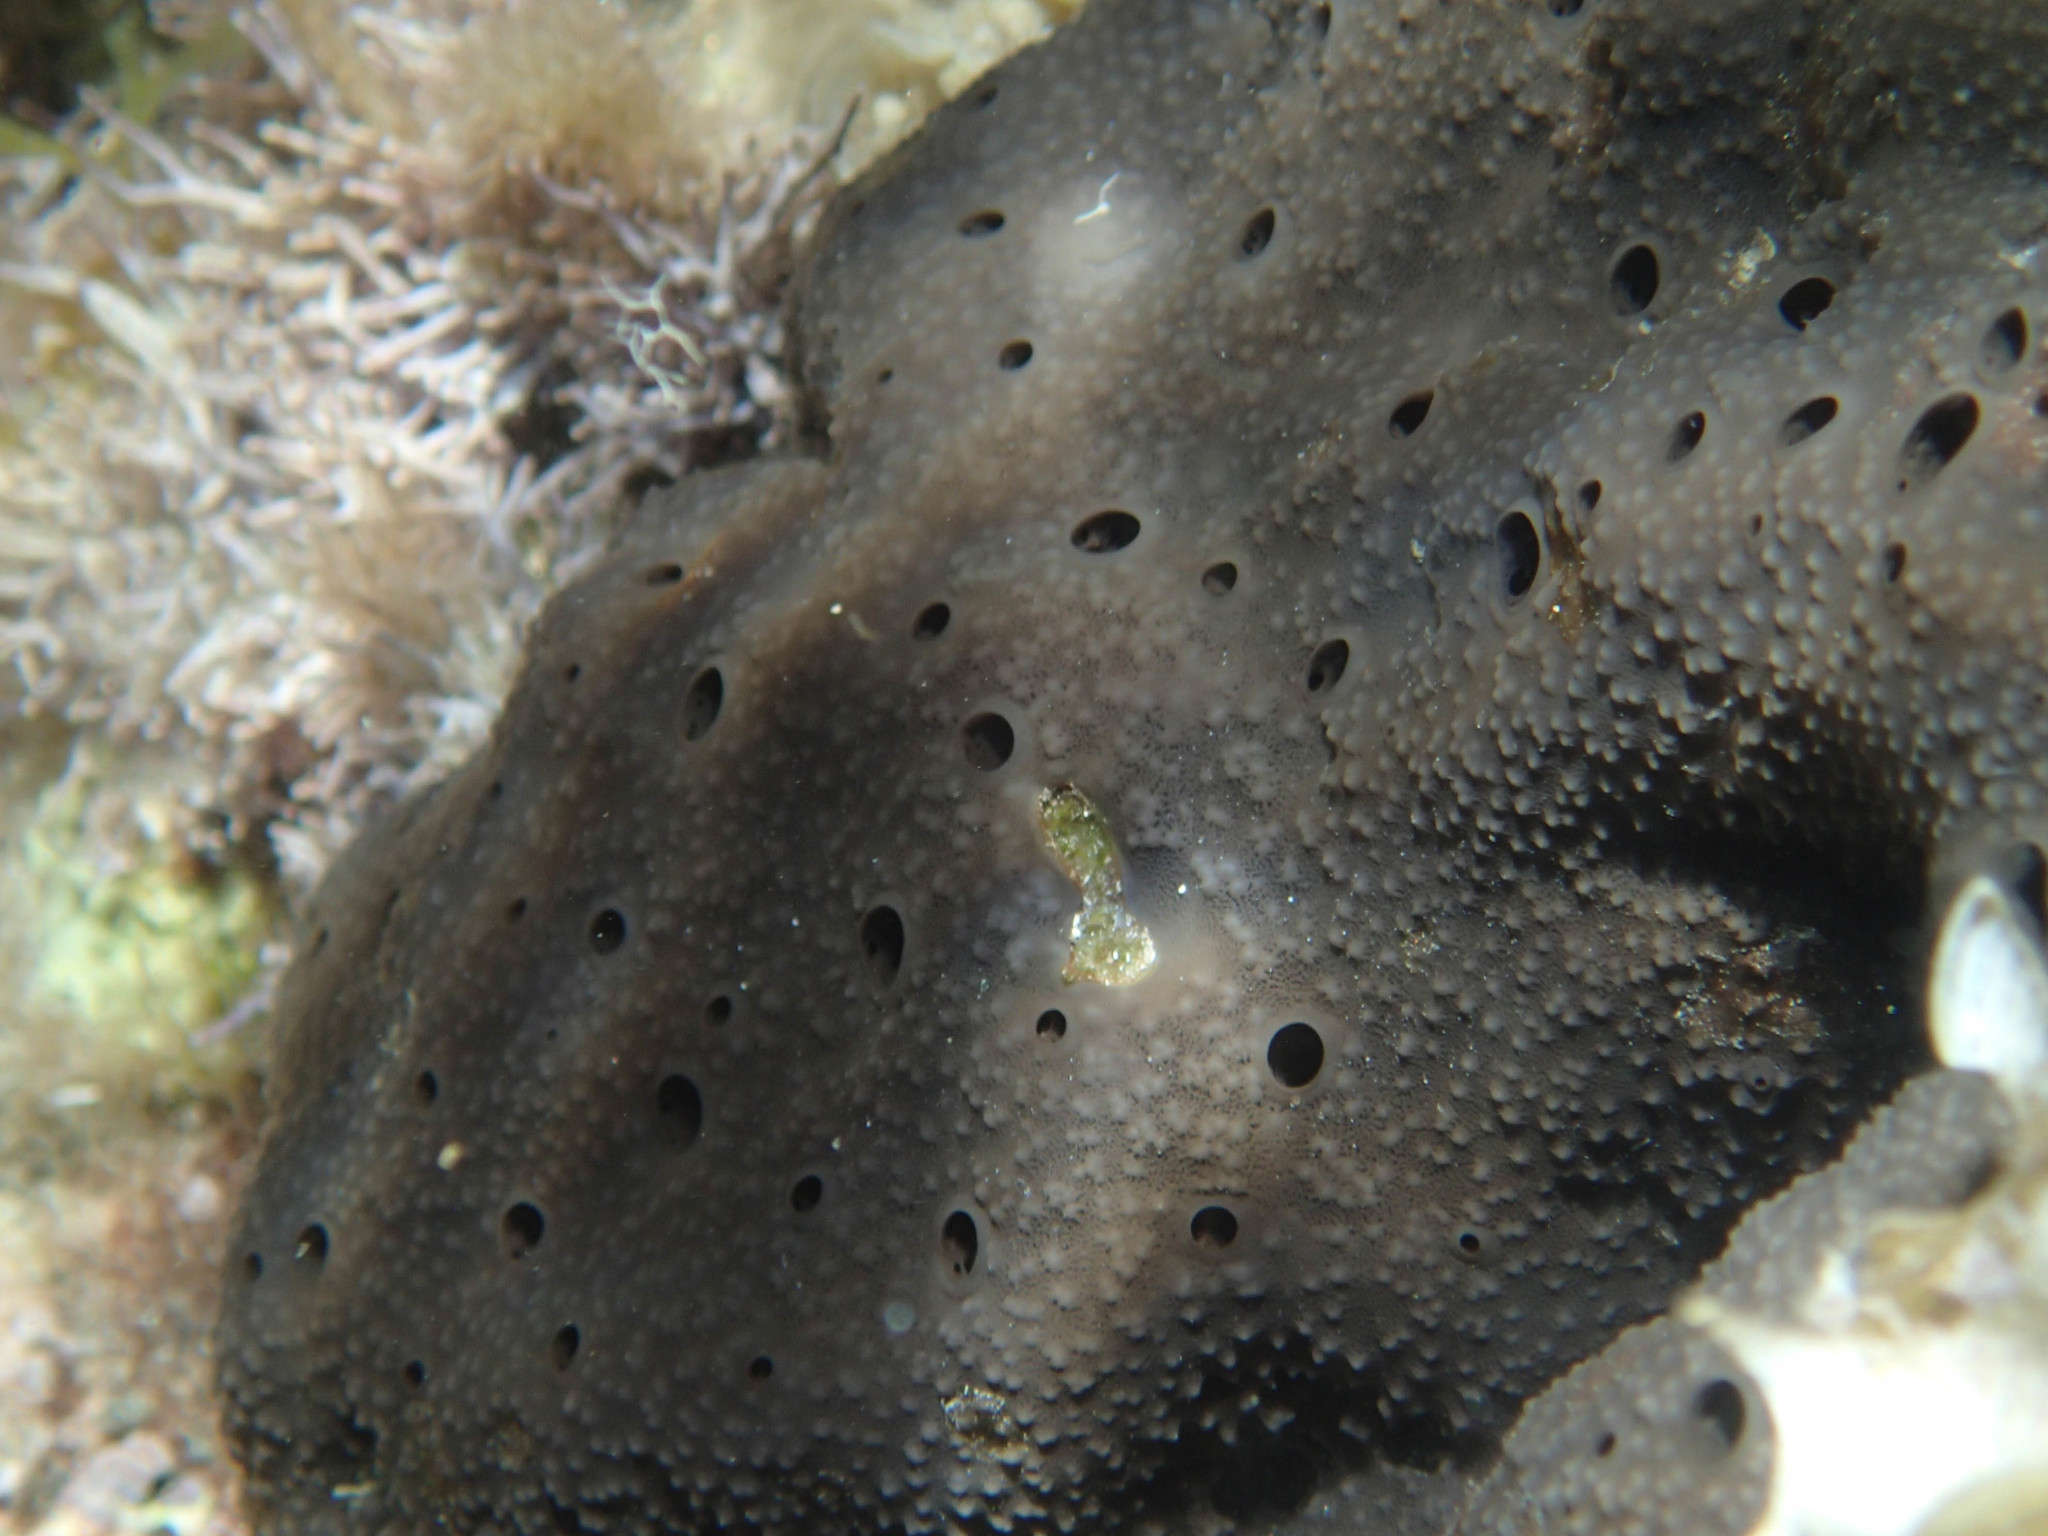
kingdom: Animalia
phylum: Porifera
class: Demospongiae
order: Dictyoceratida
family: Irciniidae
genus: Sarcotragus
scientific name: Sarcotragus spinosulus
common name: Black leather sponge
